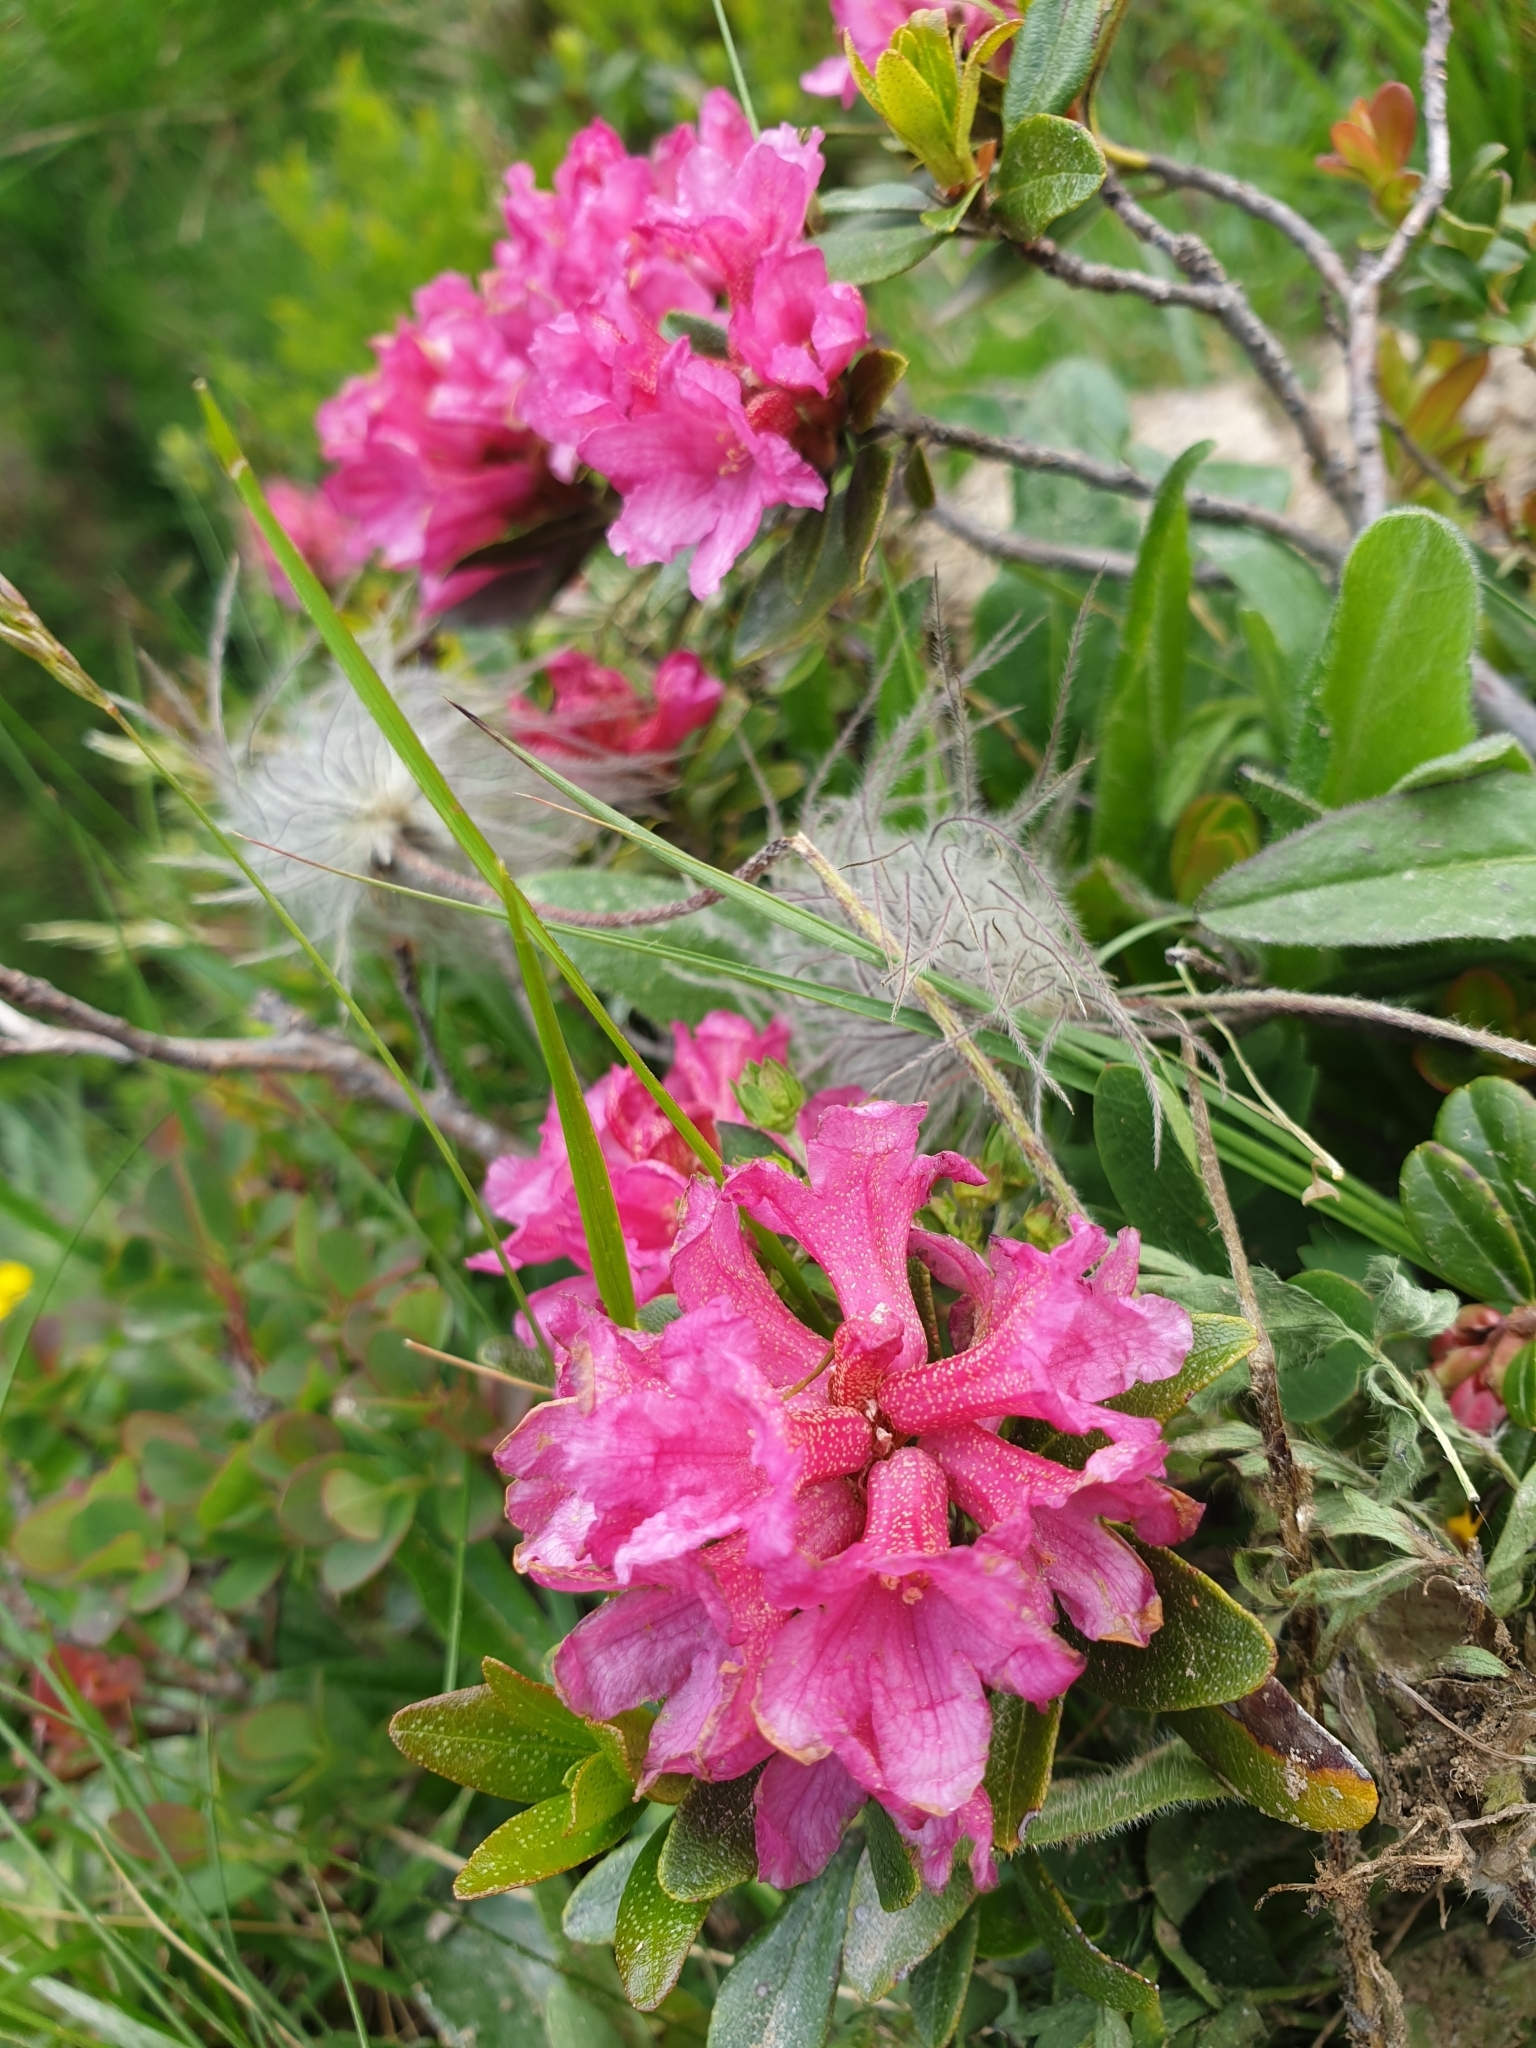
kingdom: Plantae
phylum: Tracheophyta
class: Magnoliopsida
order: Ericales
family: Ericaceae
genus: Rhododendron
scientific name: Rhododendron ferrugineum
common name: Alpenrose
